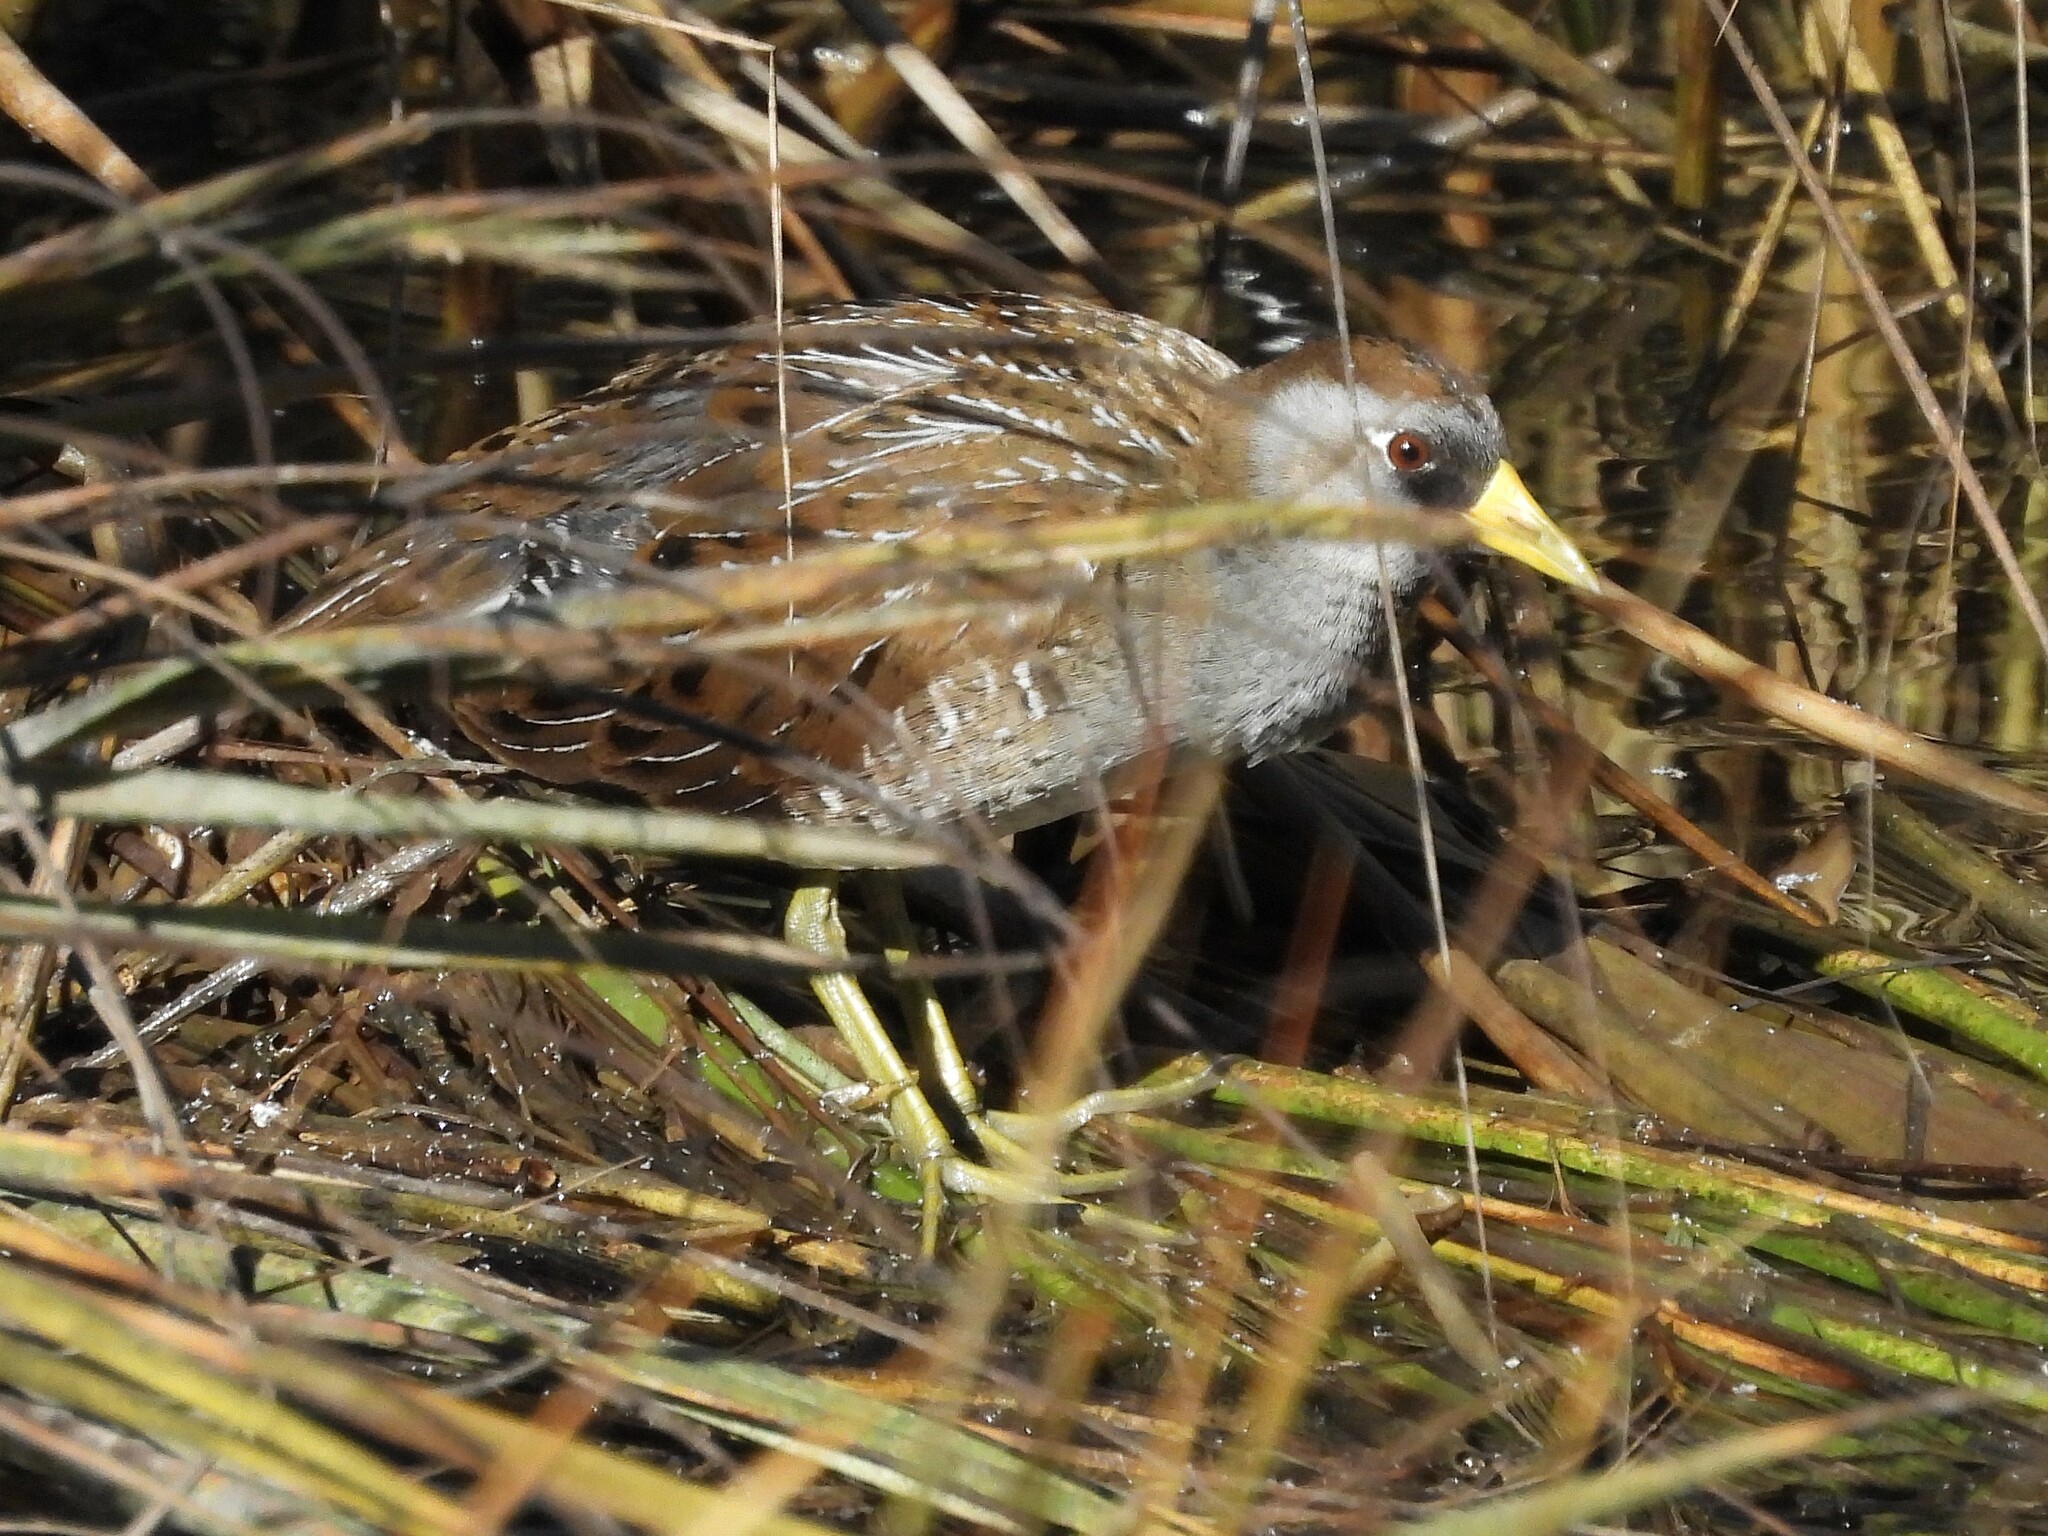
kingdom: Animalia
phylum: Chordata
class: Aves
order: Gruiformes
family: Rallidae
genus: Porzana
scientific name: Porzana carolina
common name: Sora
